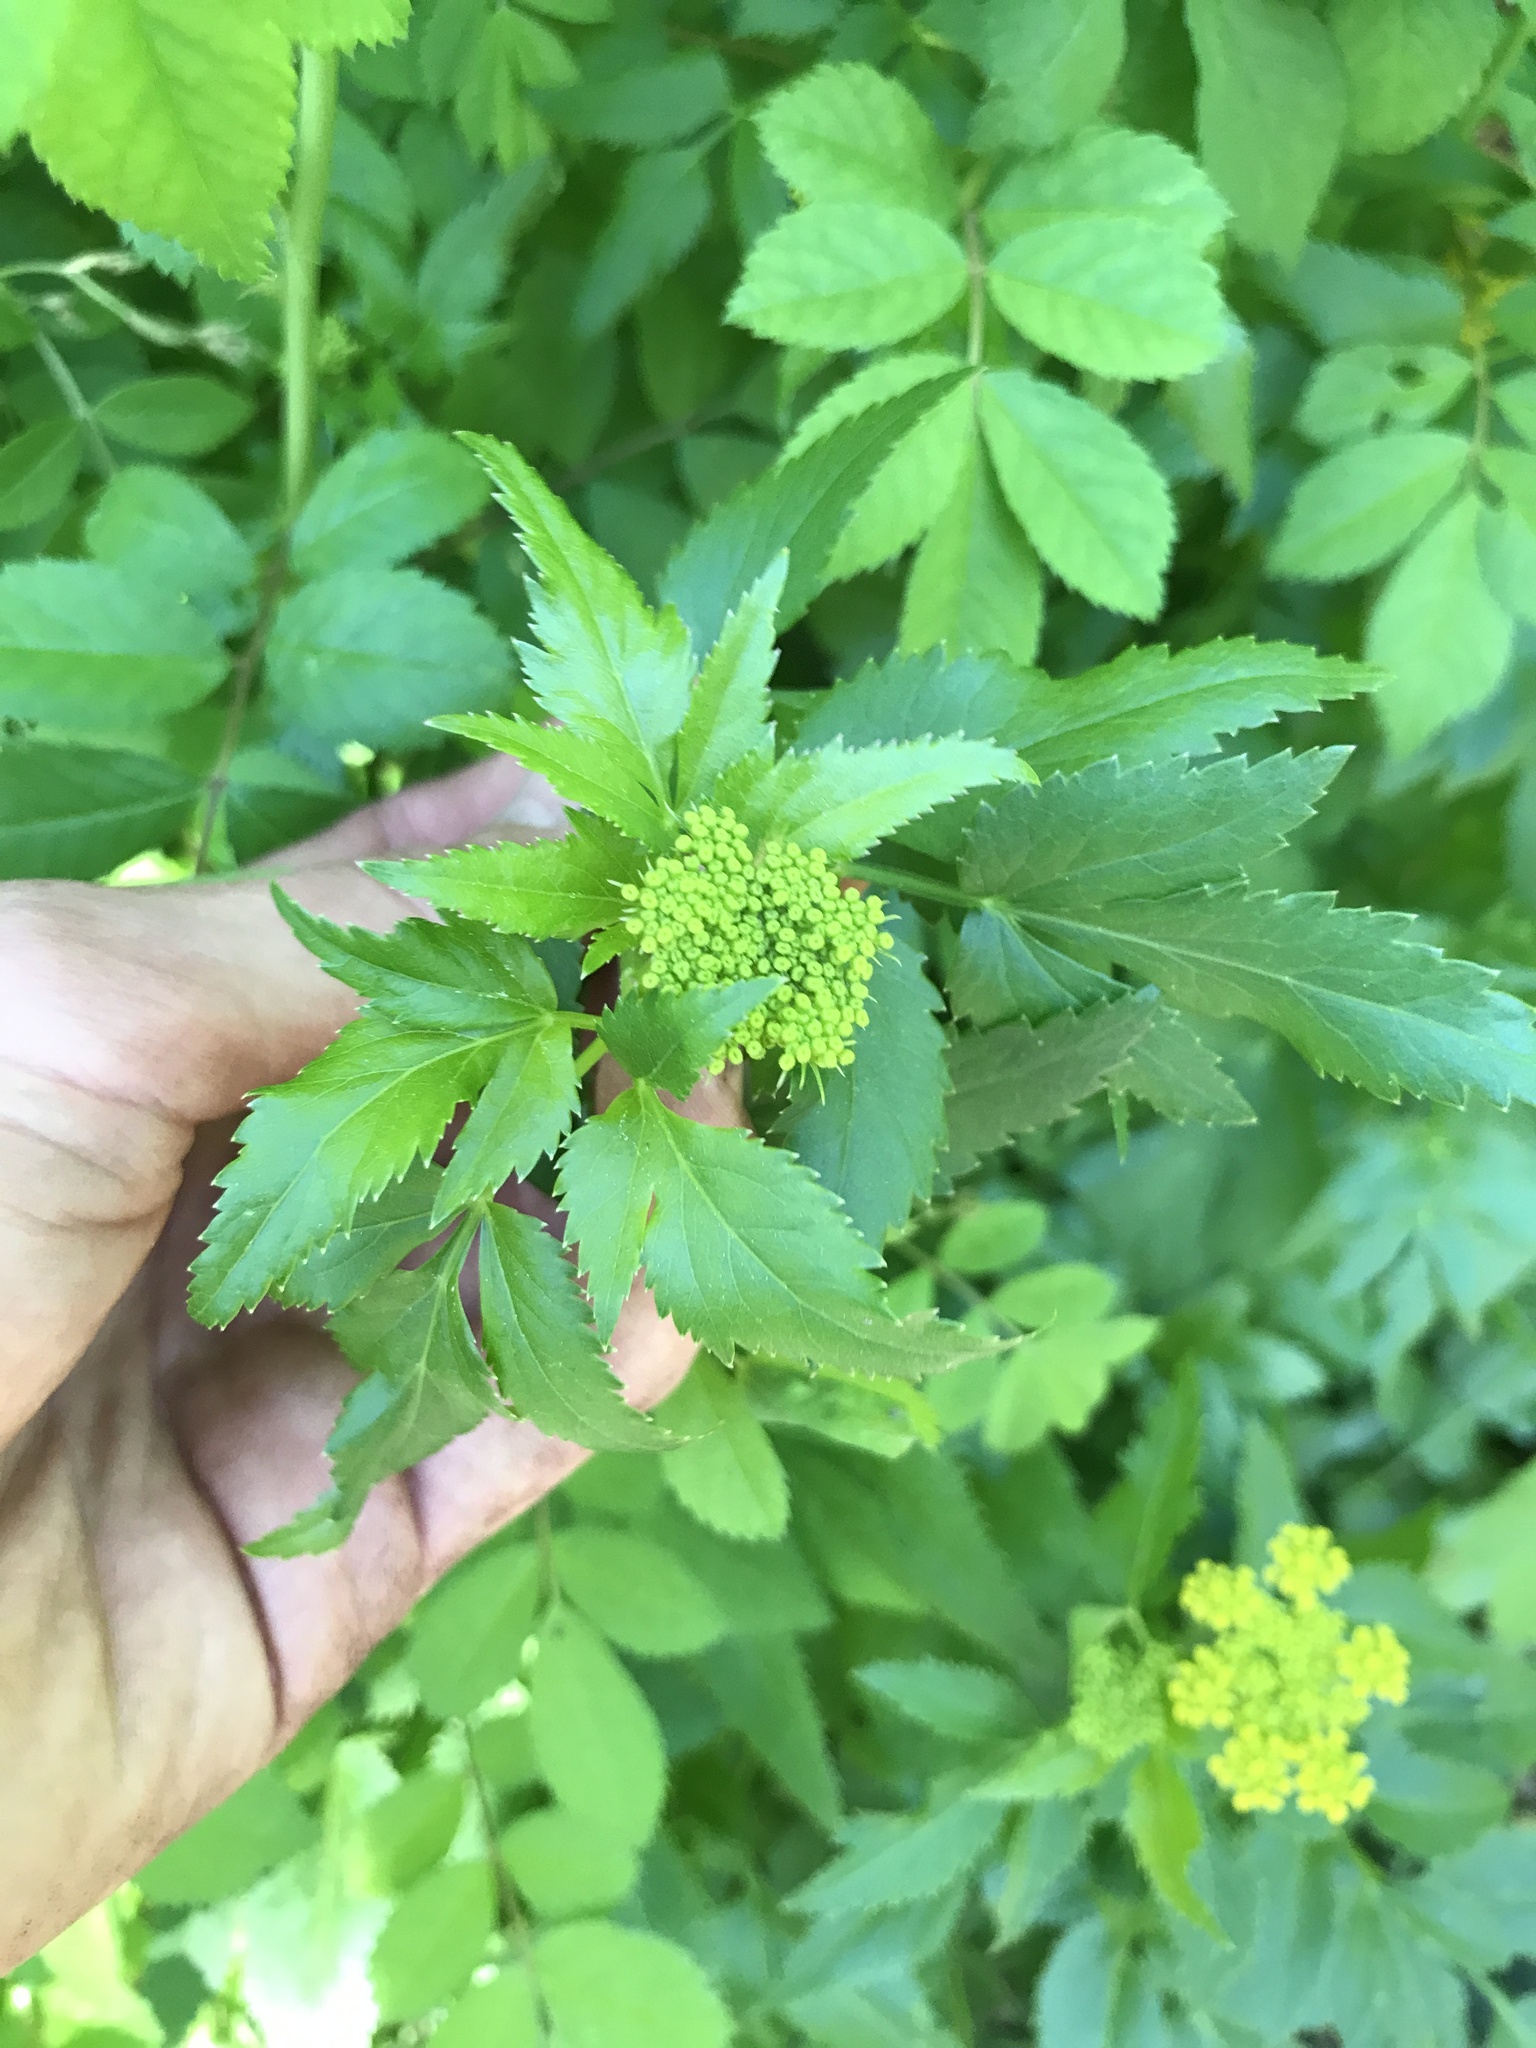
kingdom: Plantae
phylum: Tracheophyta
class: Magnoliopsida
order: Apiales
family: Apiaceae
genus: Zizia
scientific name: Zizia aurea
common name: Golden alexanders
